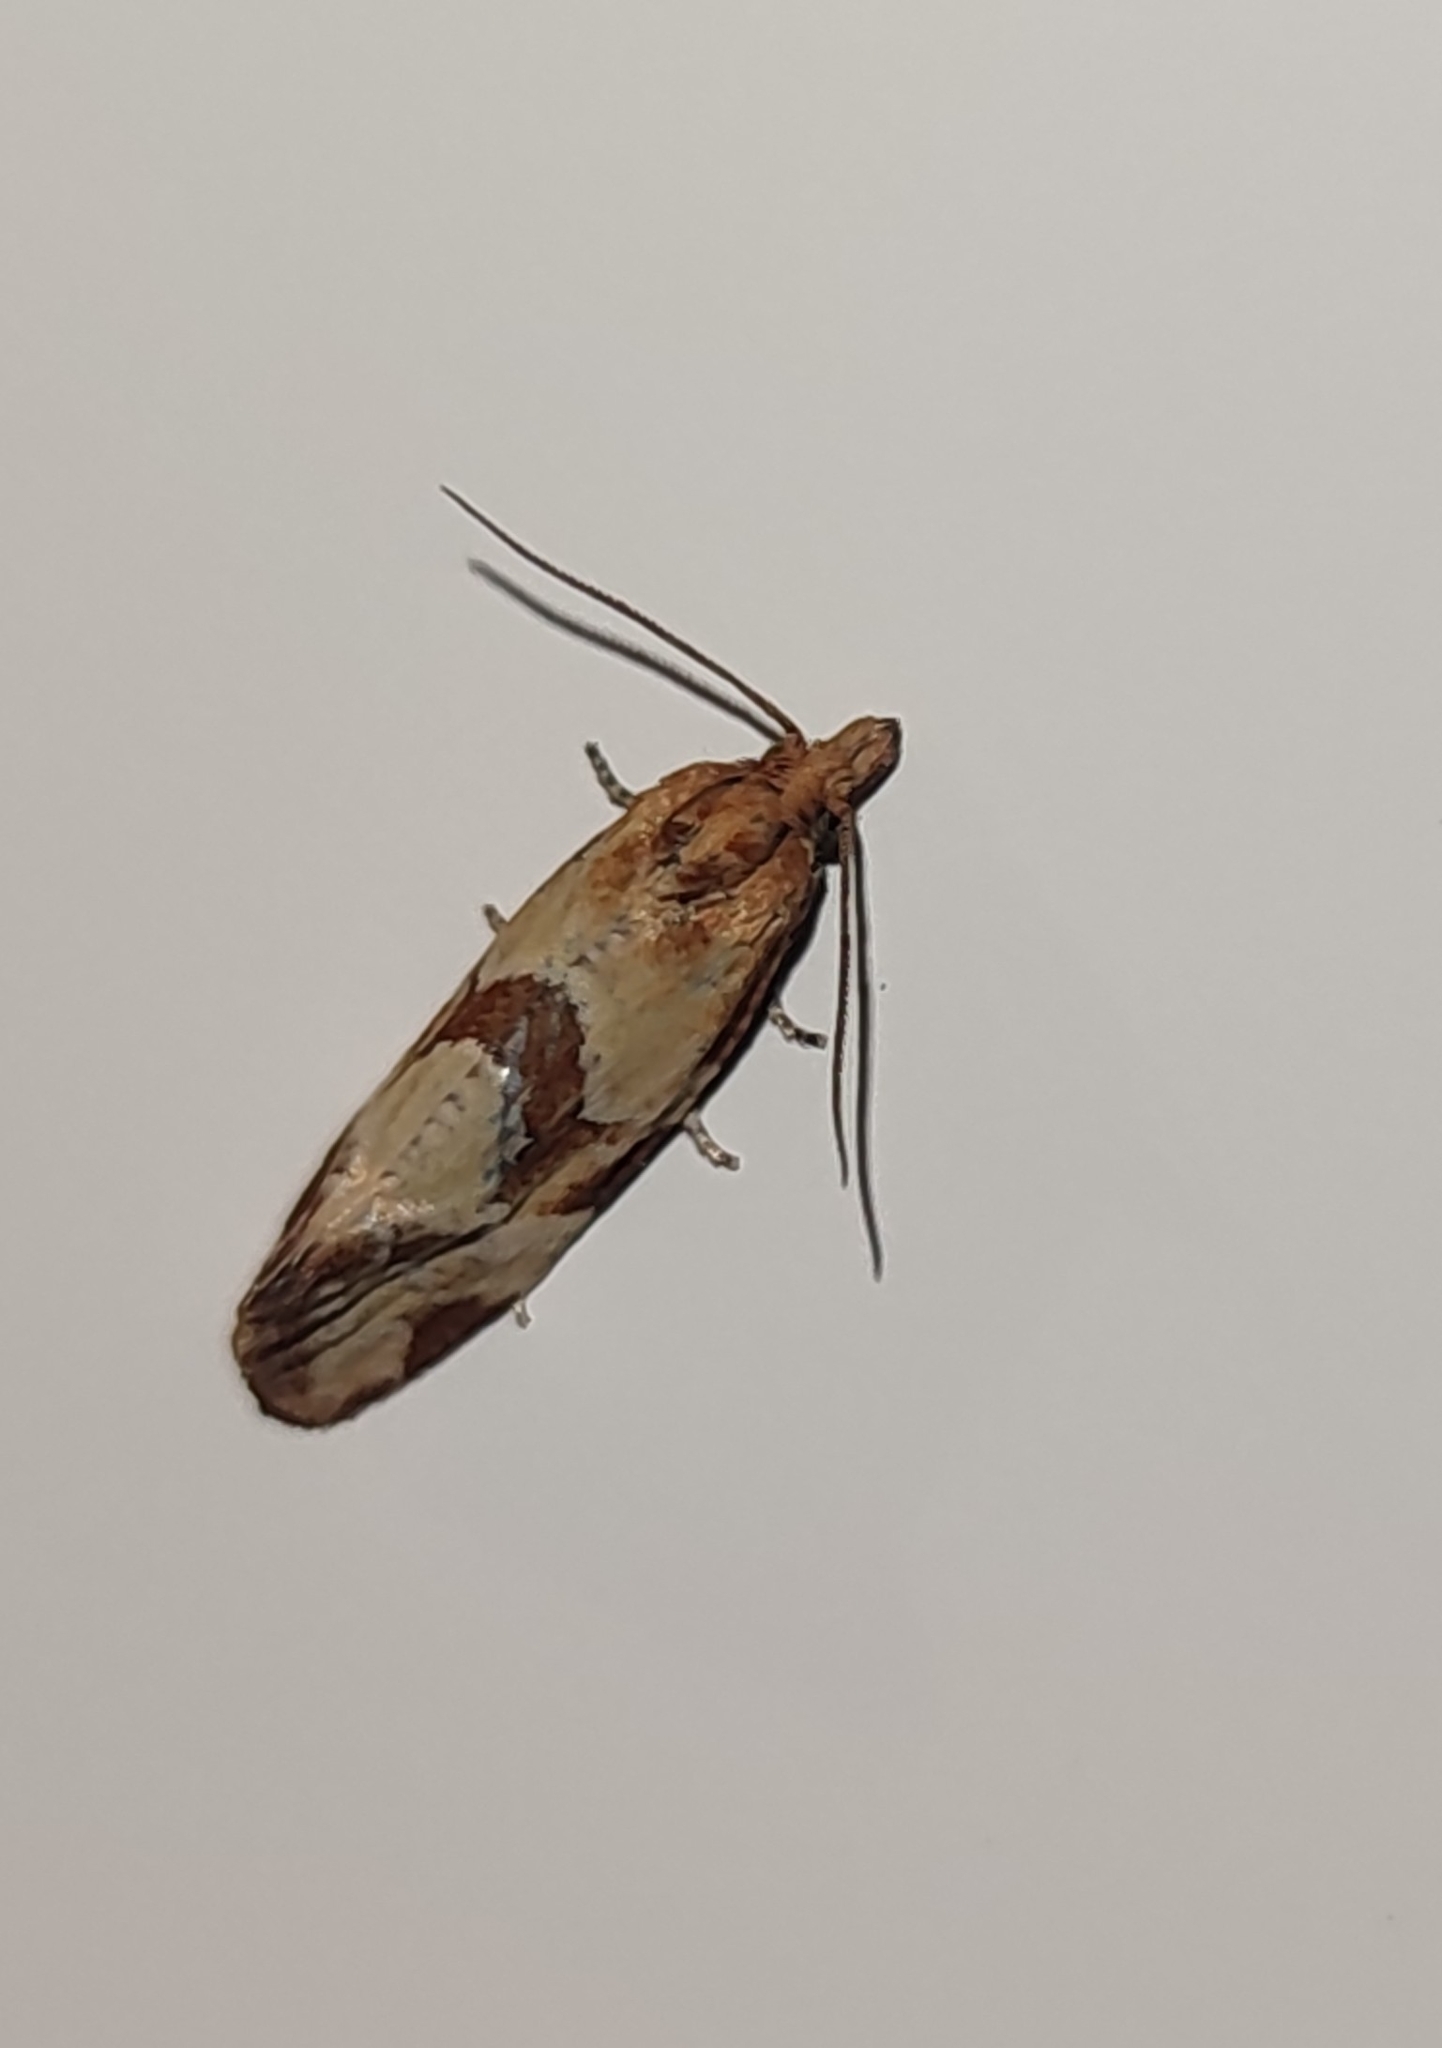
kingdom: Animalia
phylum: Arthropoda
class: Insecta
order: Lepidoptera
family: Tortricidae
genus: Aethes
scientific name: Aethes hartmanniana
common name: Scabious conch
